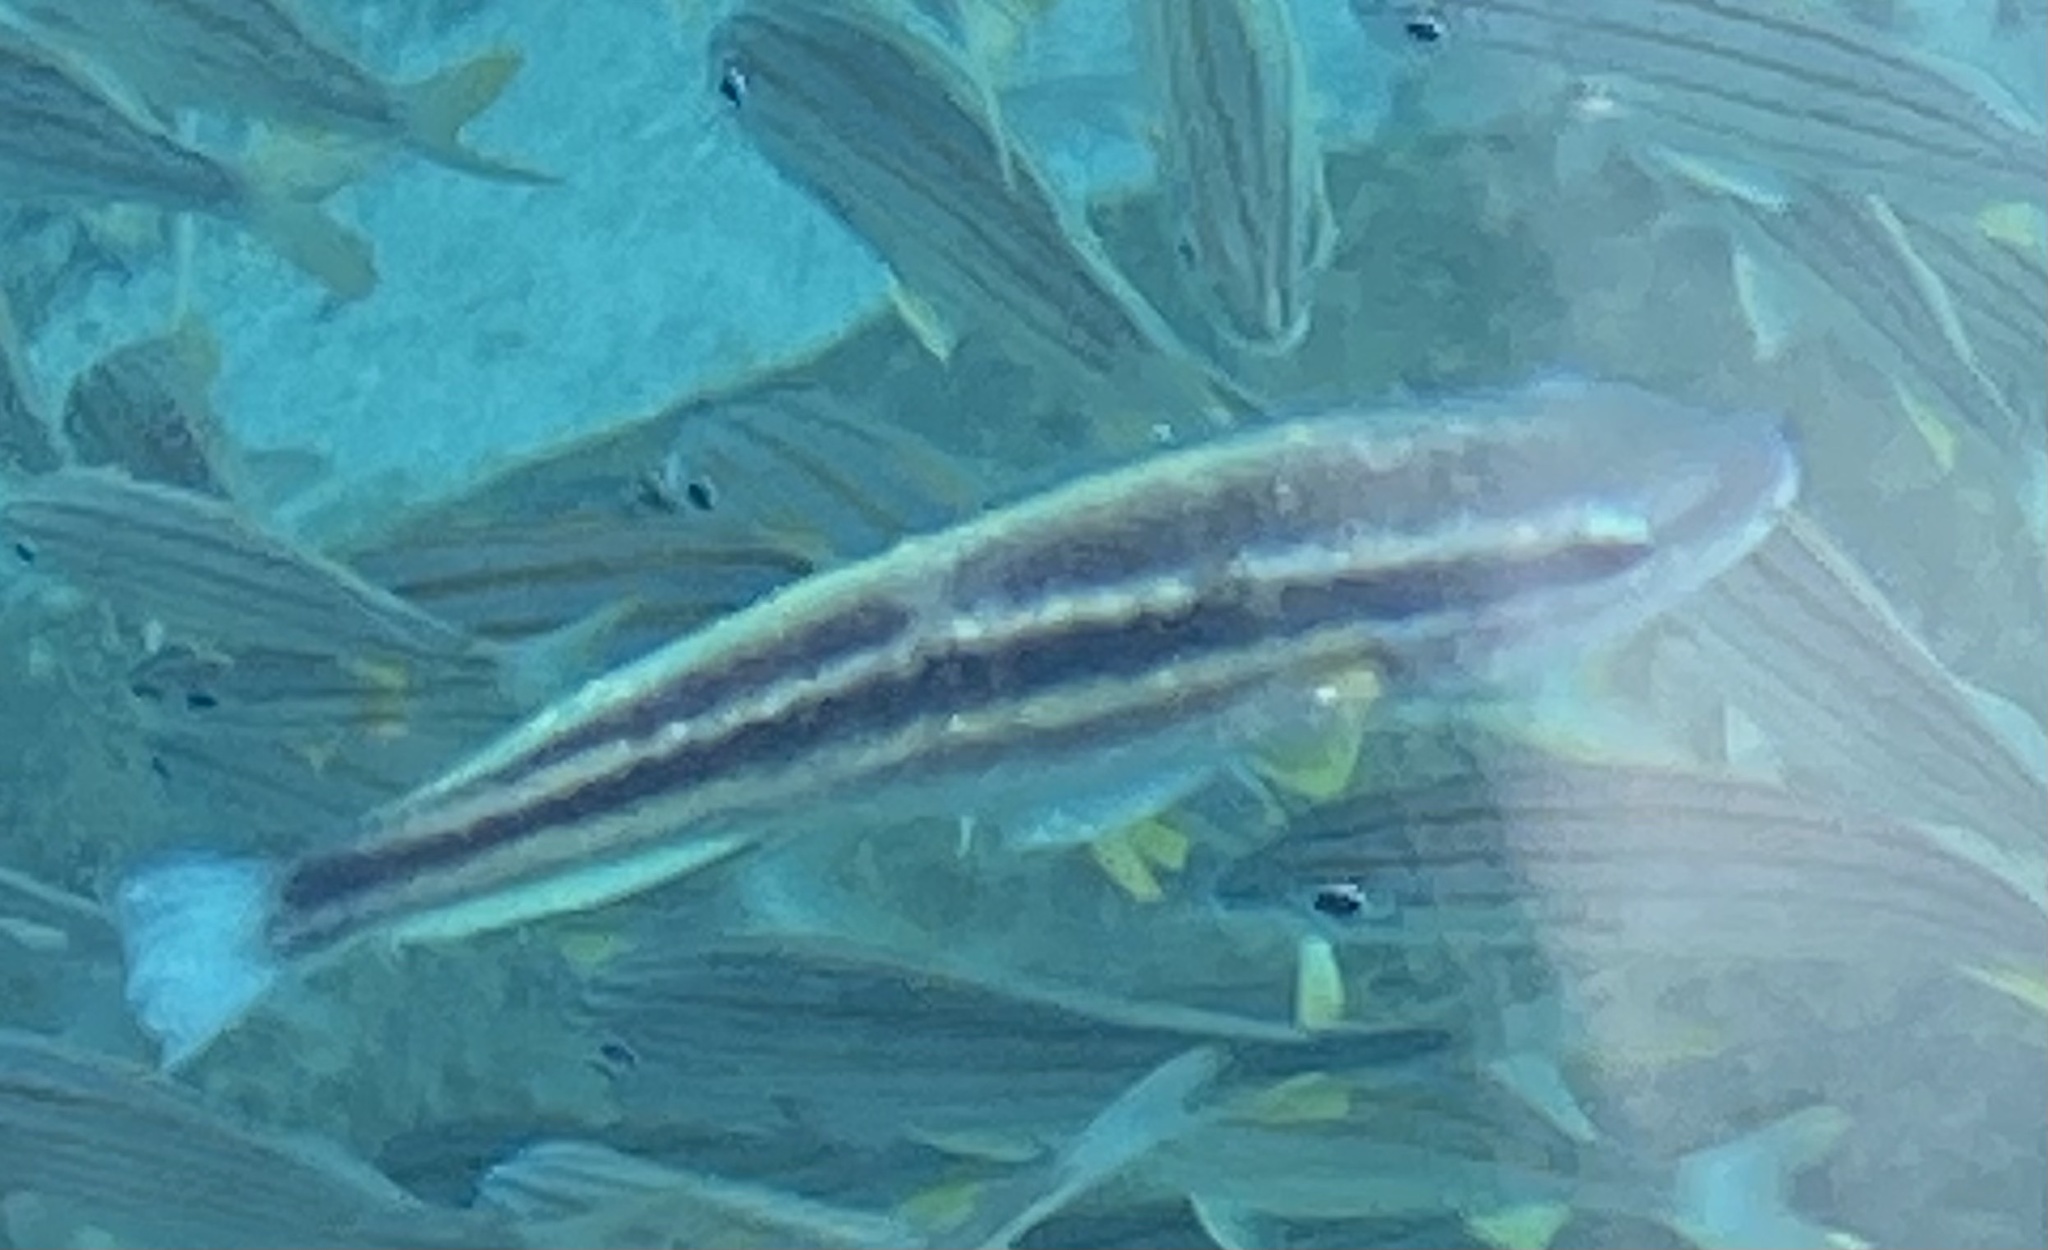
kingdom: Animalia
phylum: Chordata
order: Perciformes
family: Scaridae
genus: Scarus
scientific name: Scarus iseri
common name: Striped parrotfish
